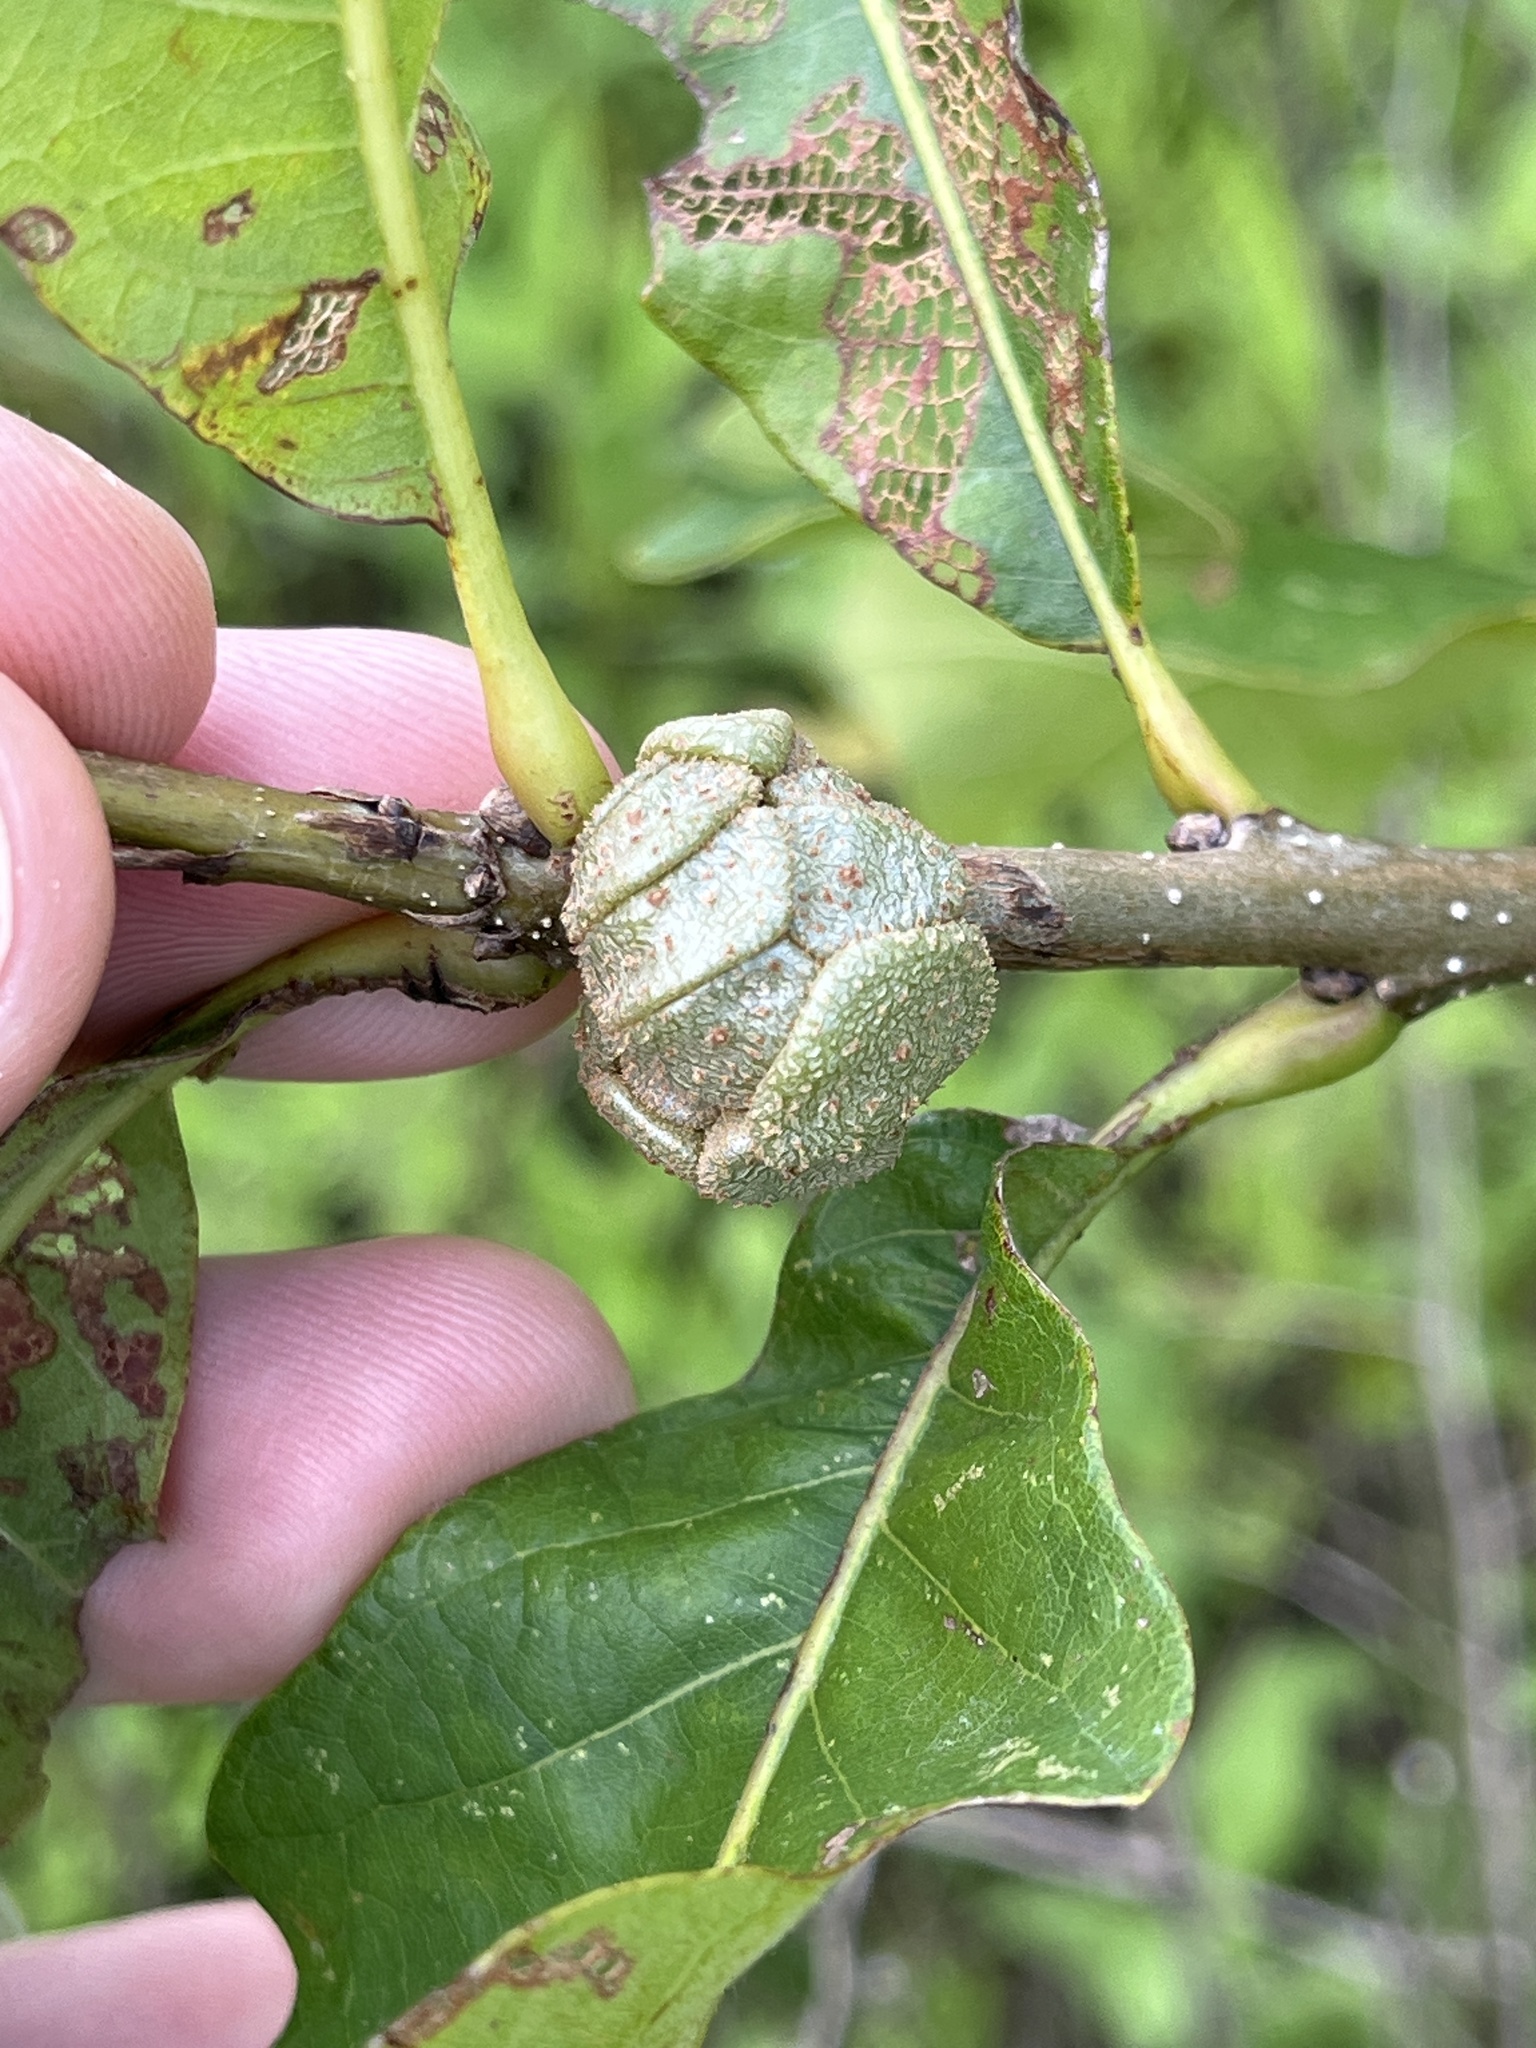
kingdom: Animalia
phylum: Arthropoda
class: Insecta
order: Hymenoptera
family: Cynipidae
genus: Andricus
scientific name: Andricus
